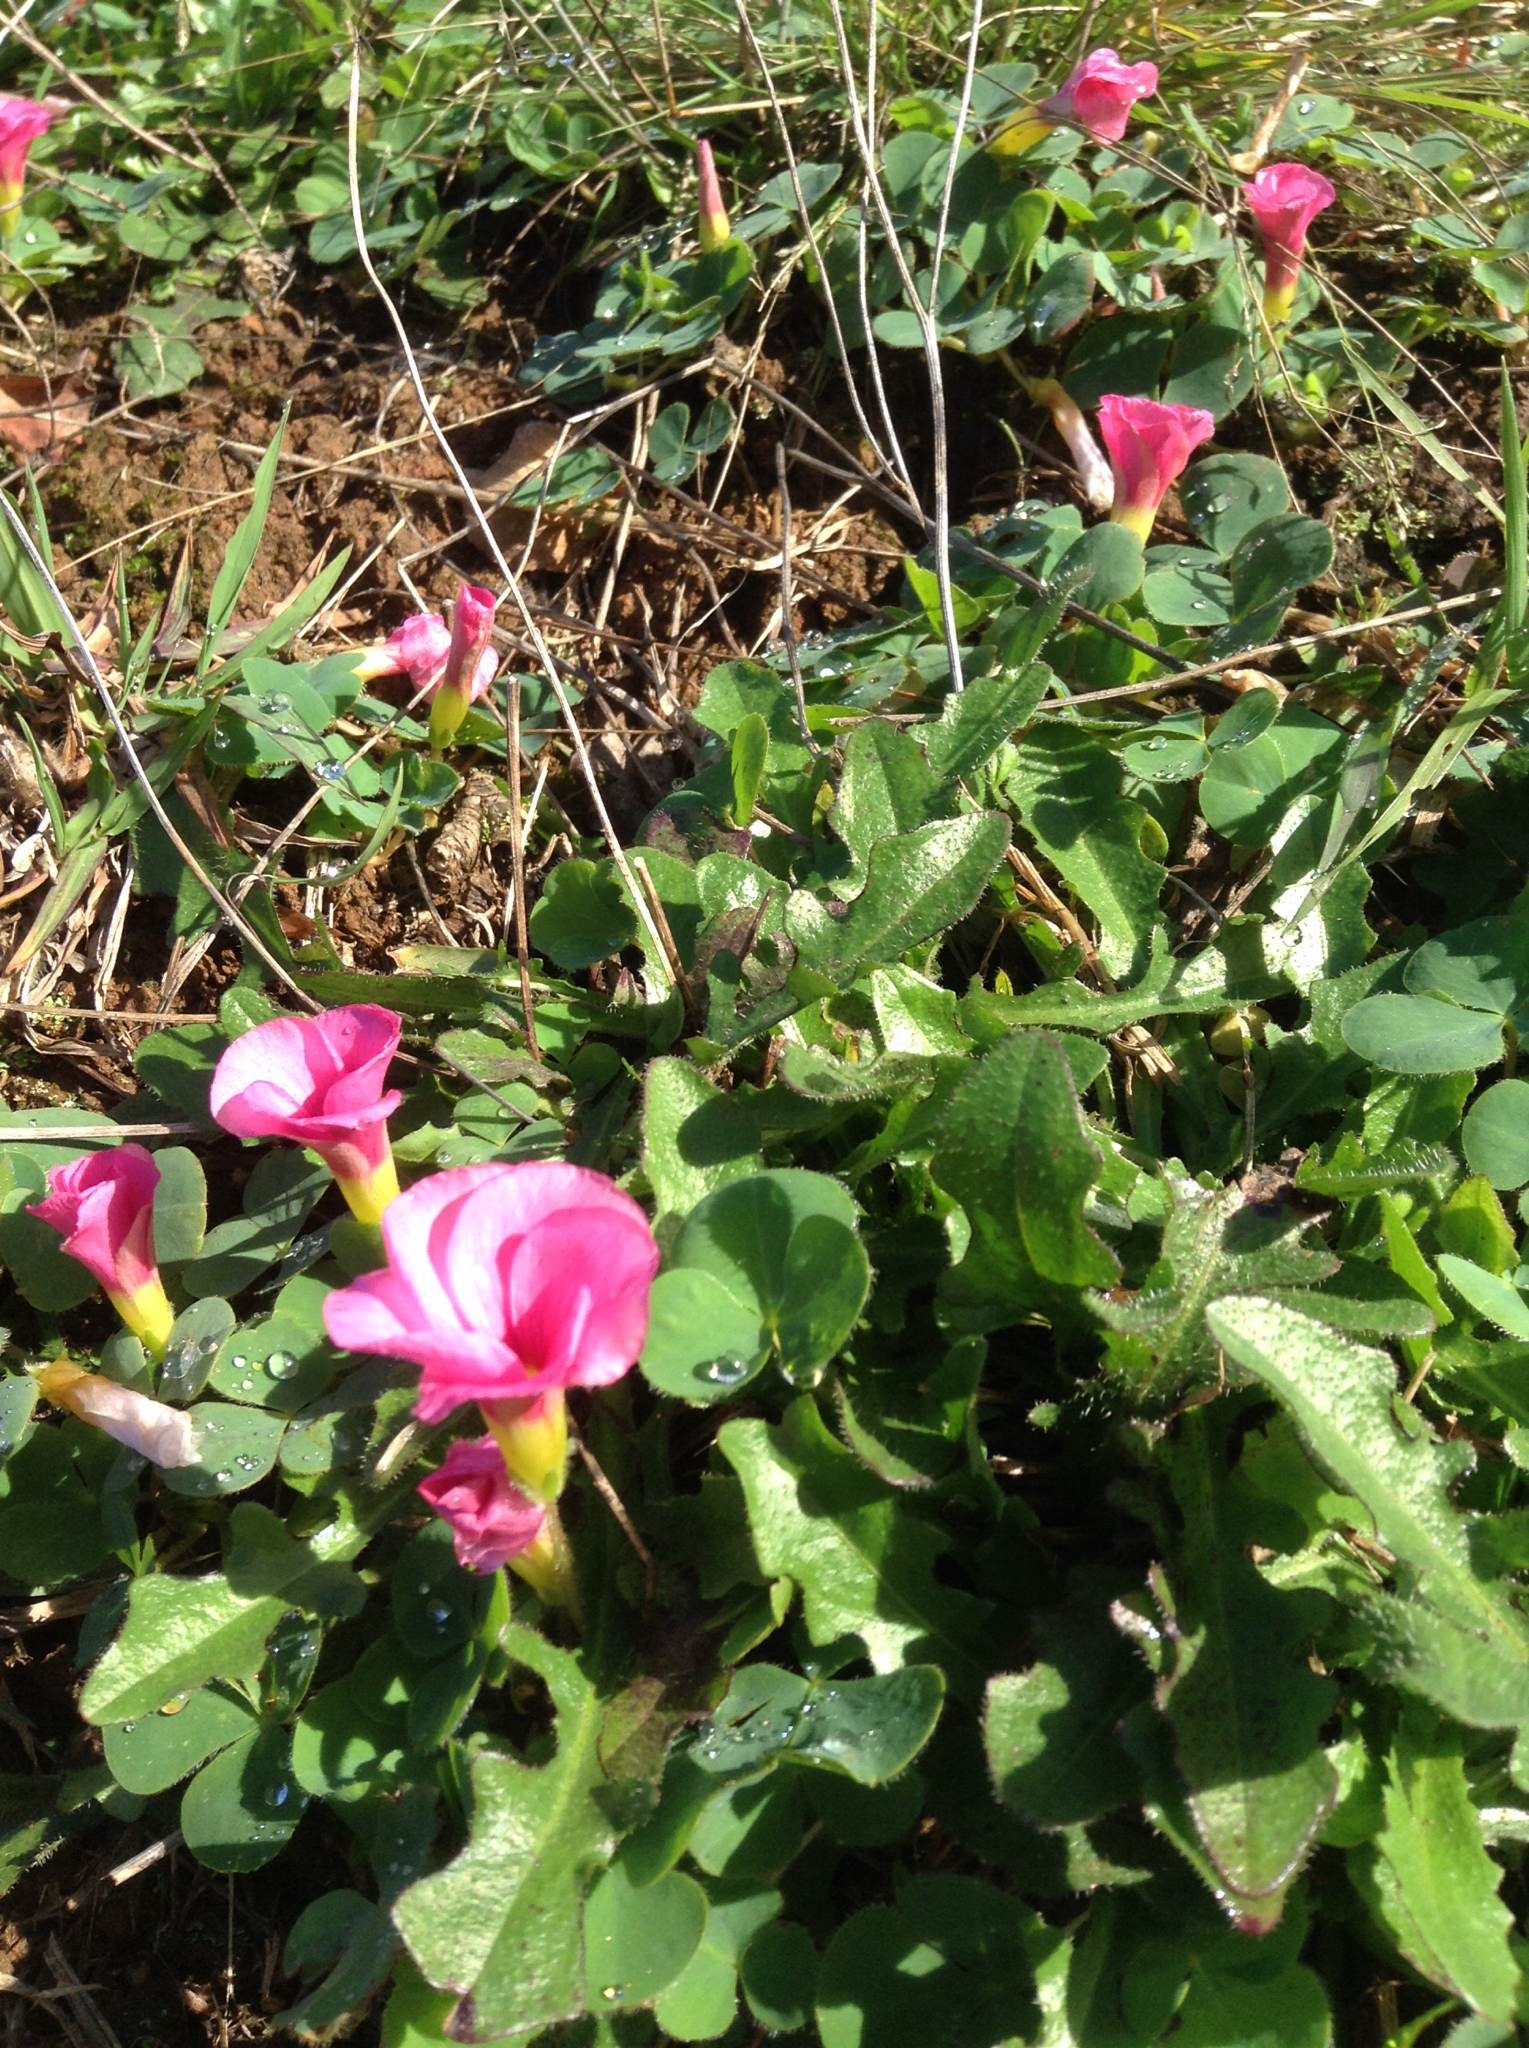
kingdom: Plantae
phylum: Tracheophyta
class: Magnoliopsida
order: Oxalidales
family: Oxalidaceae
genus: Oxalis
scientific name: Oxalis purpurea
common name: Purple woodsorrel
